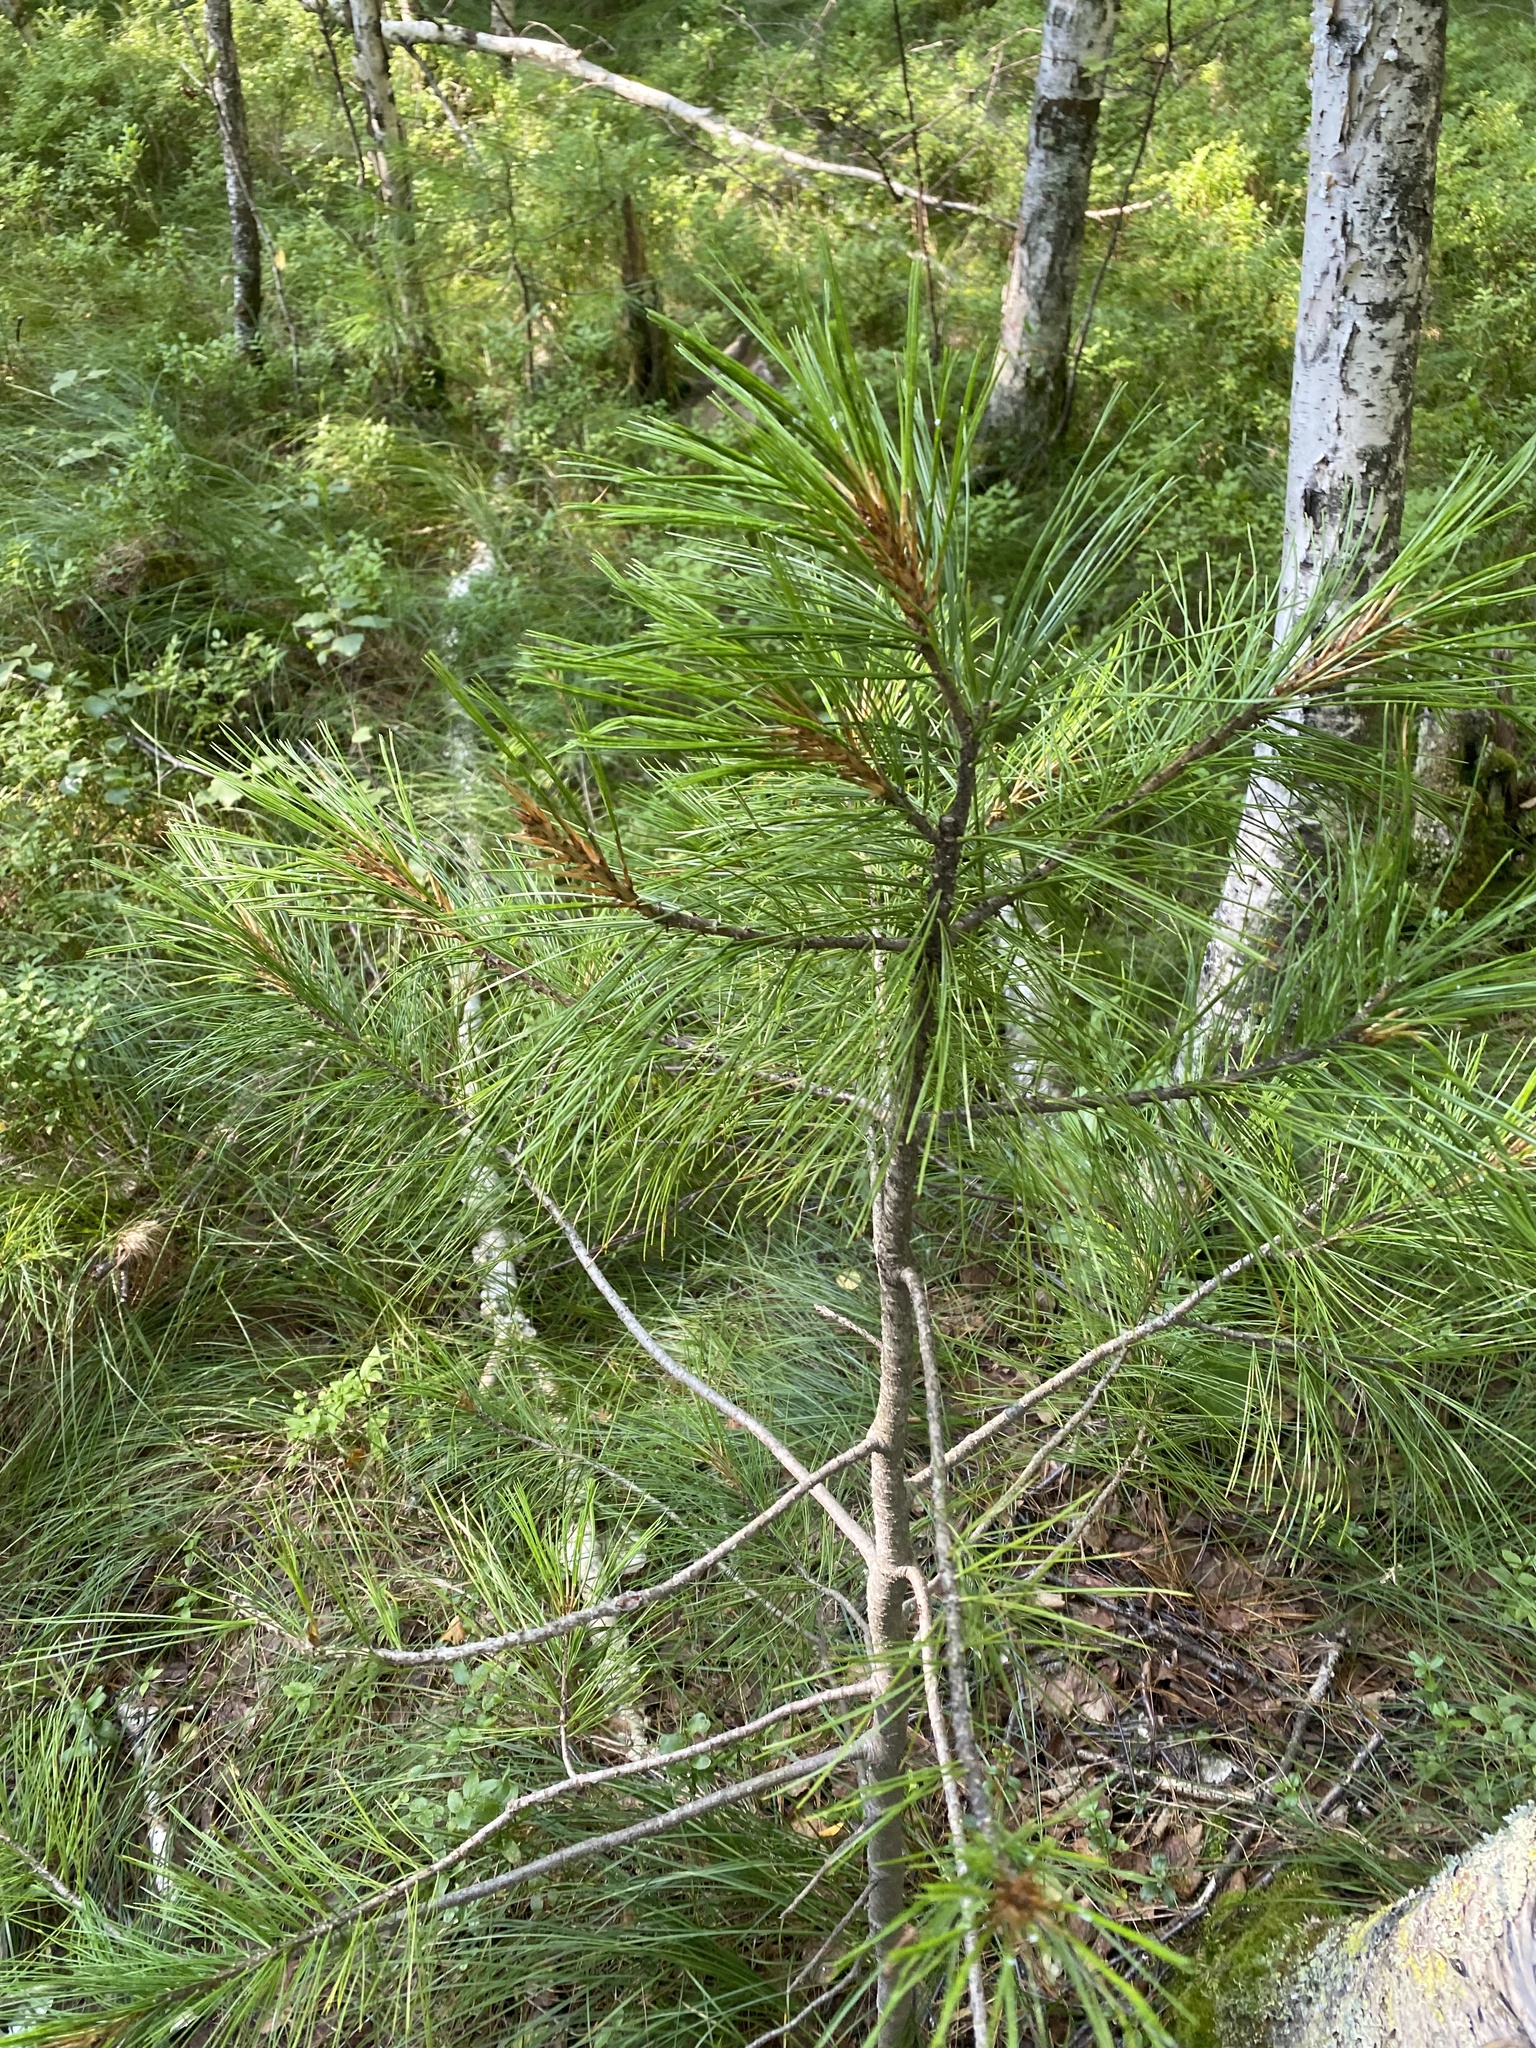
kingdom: Plantae
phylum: Tracheophyta
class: Pinopsida
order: Pinales
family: Pinaceae
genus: Pinus
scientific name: Pinus sibirica
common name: Siberian pine
